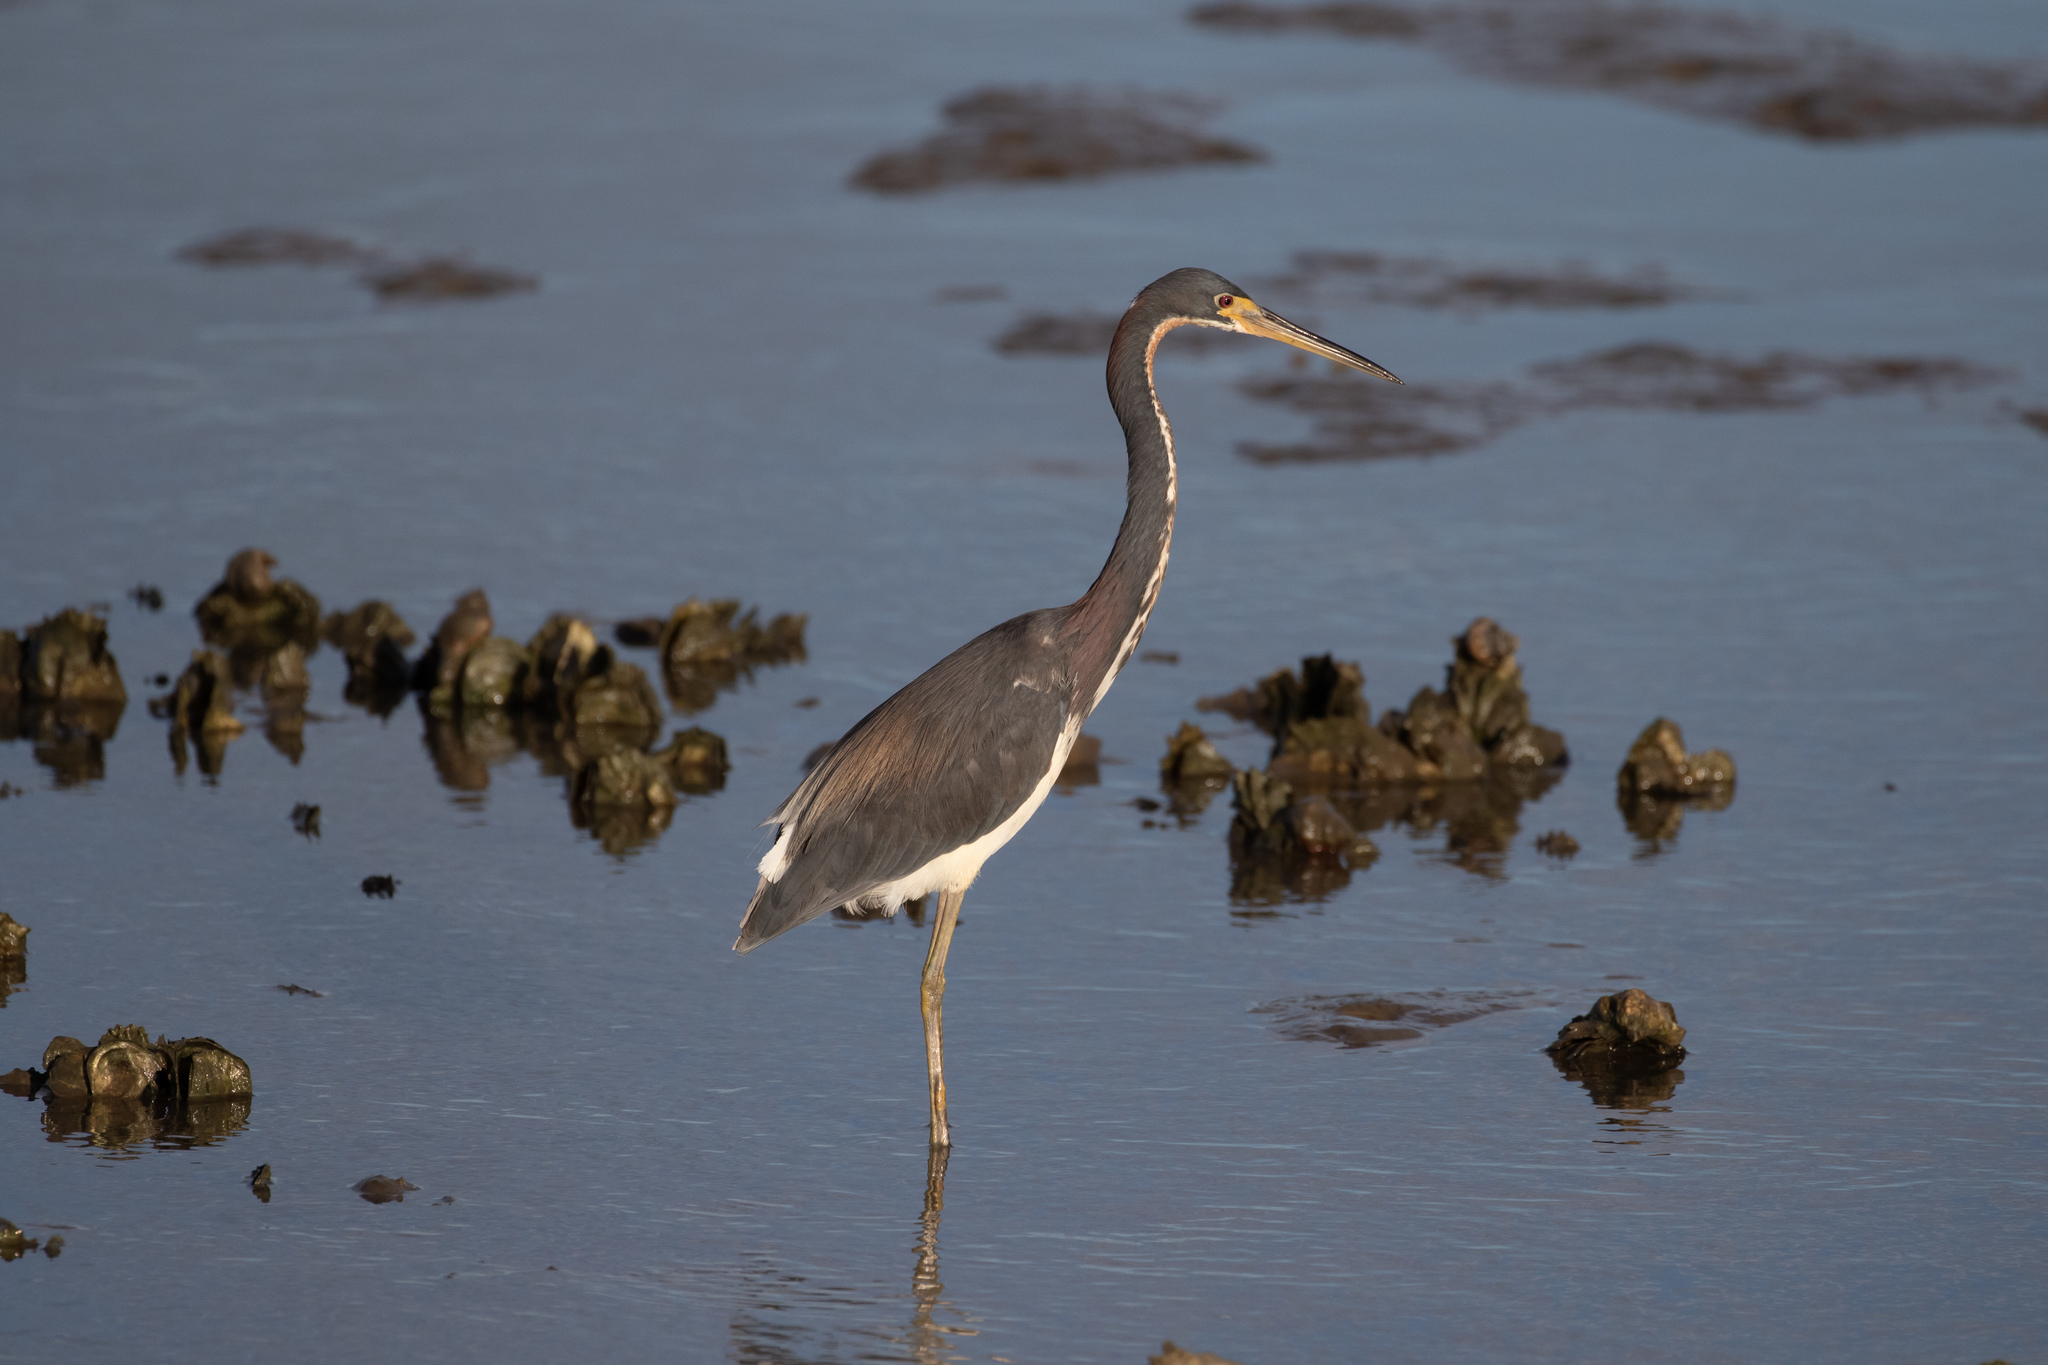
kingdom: Animalia
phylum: Chordata
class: Aves
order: Pelecaniformes
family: Ardeidae
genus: Egretta
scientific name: Egretta tricolor
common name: Tricolored heron
